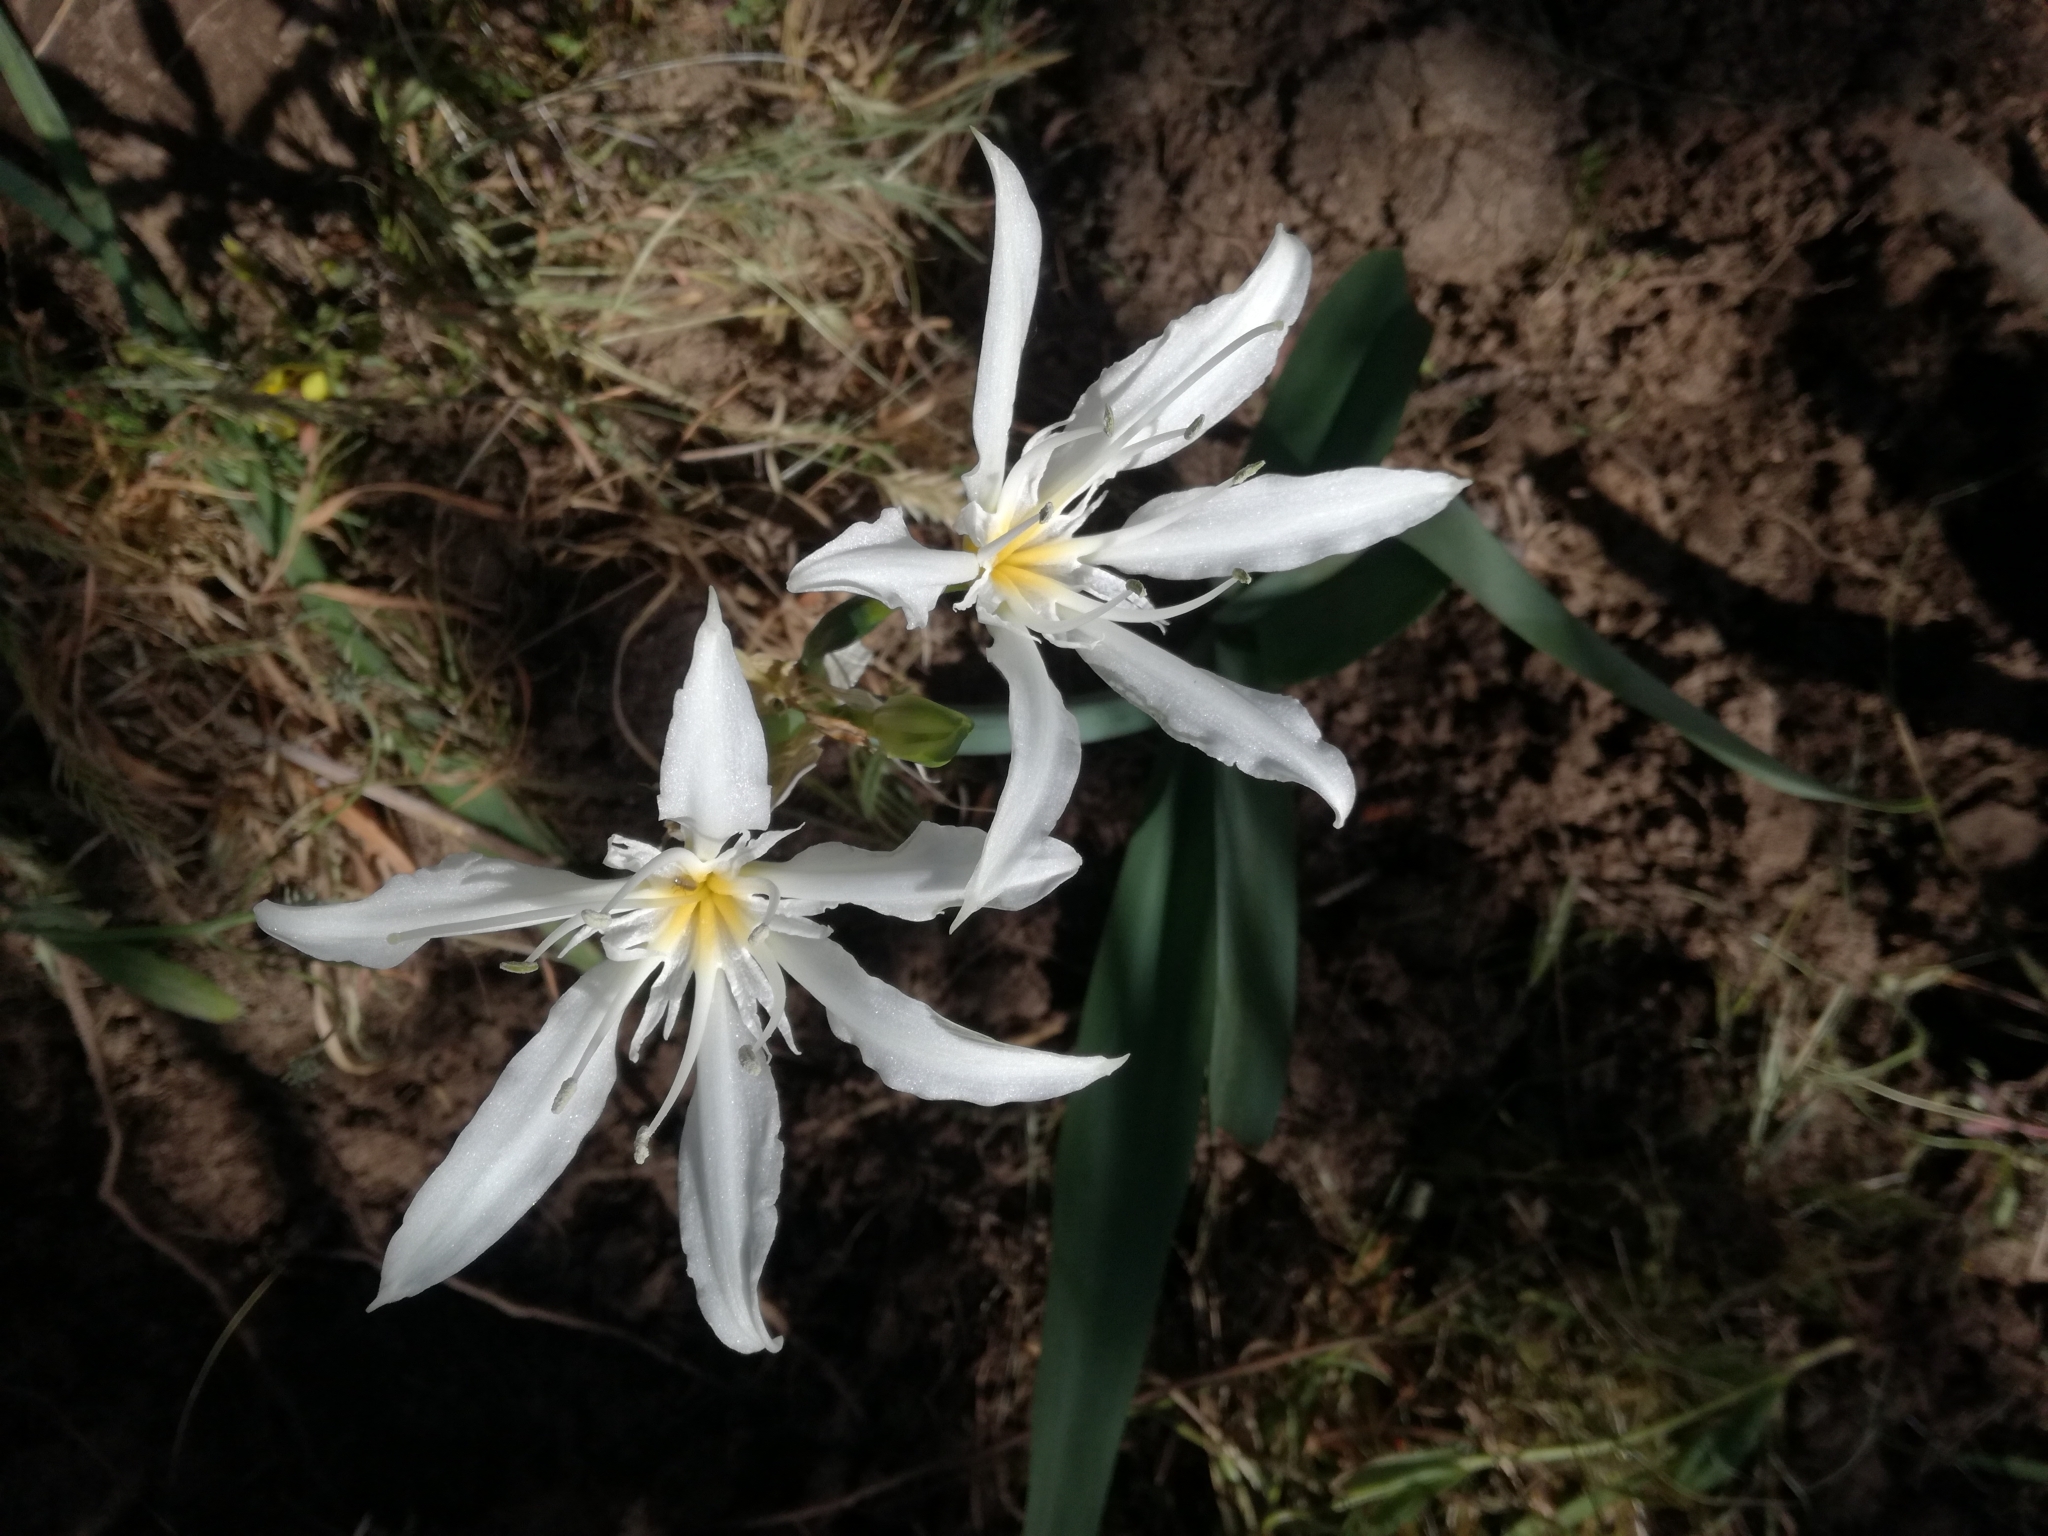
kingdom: Plantae
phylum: Tracheophyta
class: Liliopsida
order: Asparagales
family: Amaryllidaceae
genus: Pancratium
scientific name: Pancratium illyricum
